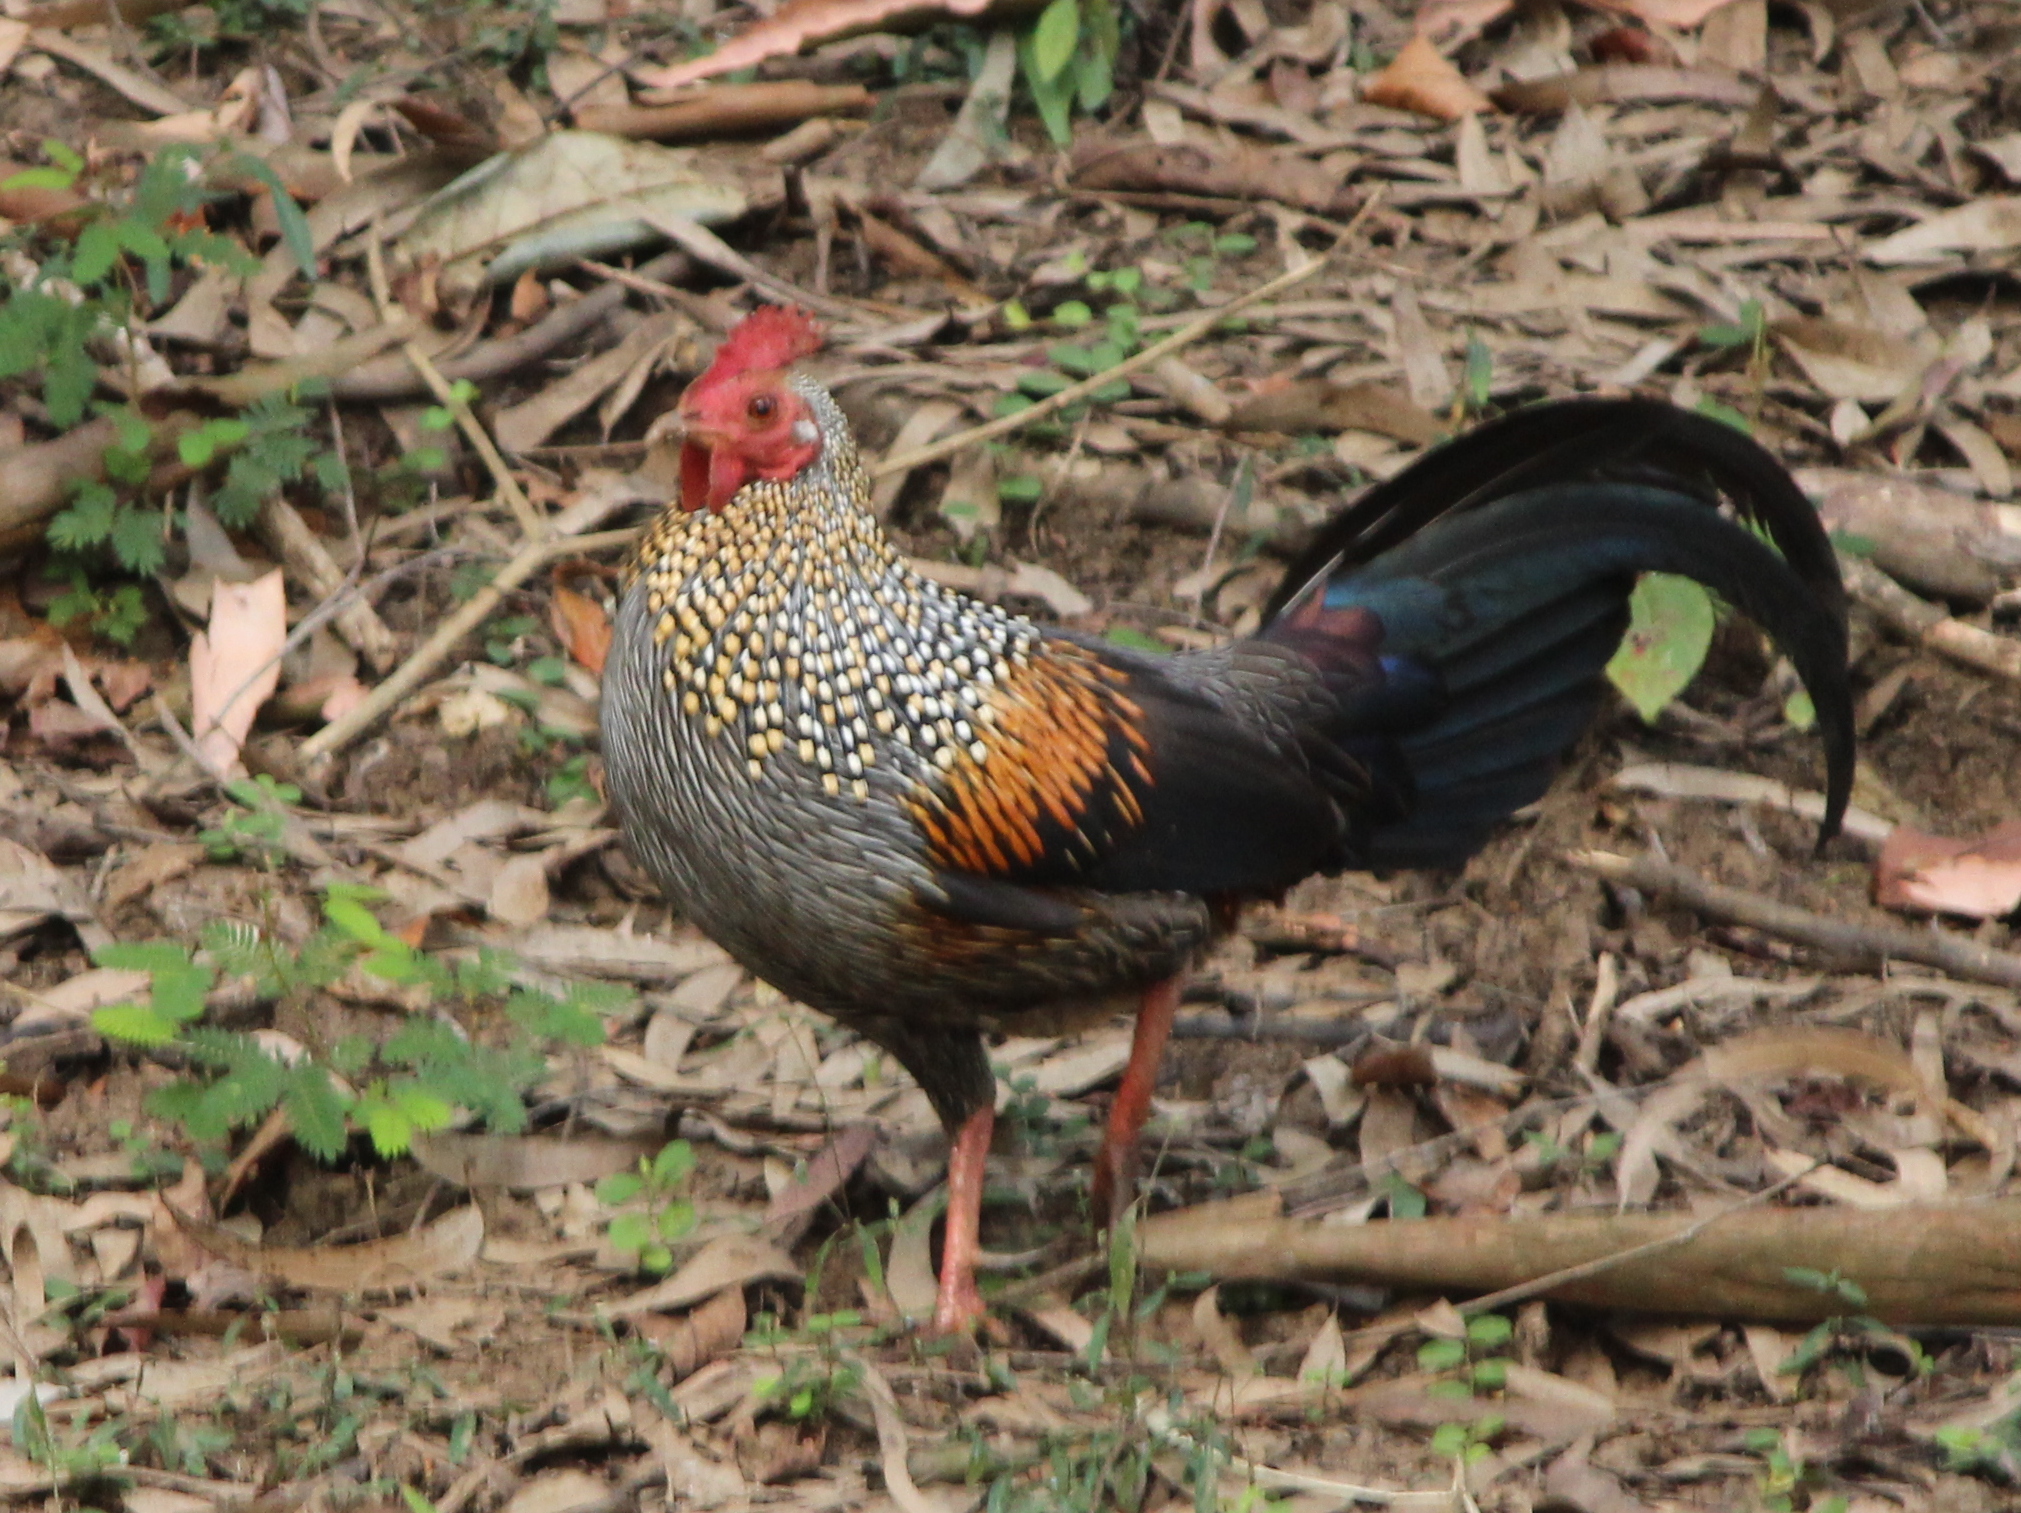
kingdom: Animalia
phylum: Chordata
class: Aves
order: Galliformes
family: Phasianidae
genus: Gallus
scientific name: Gallus sonneratii
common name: Grey junglefowl
